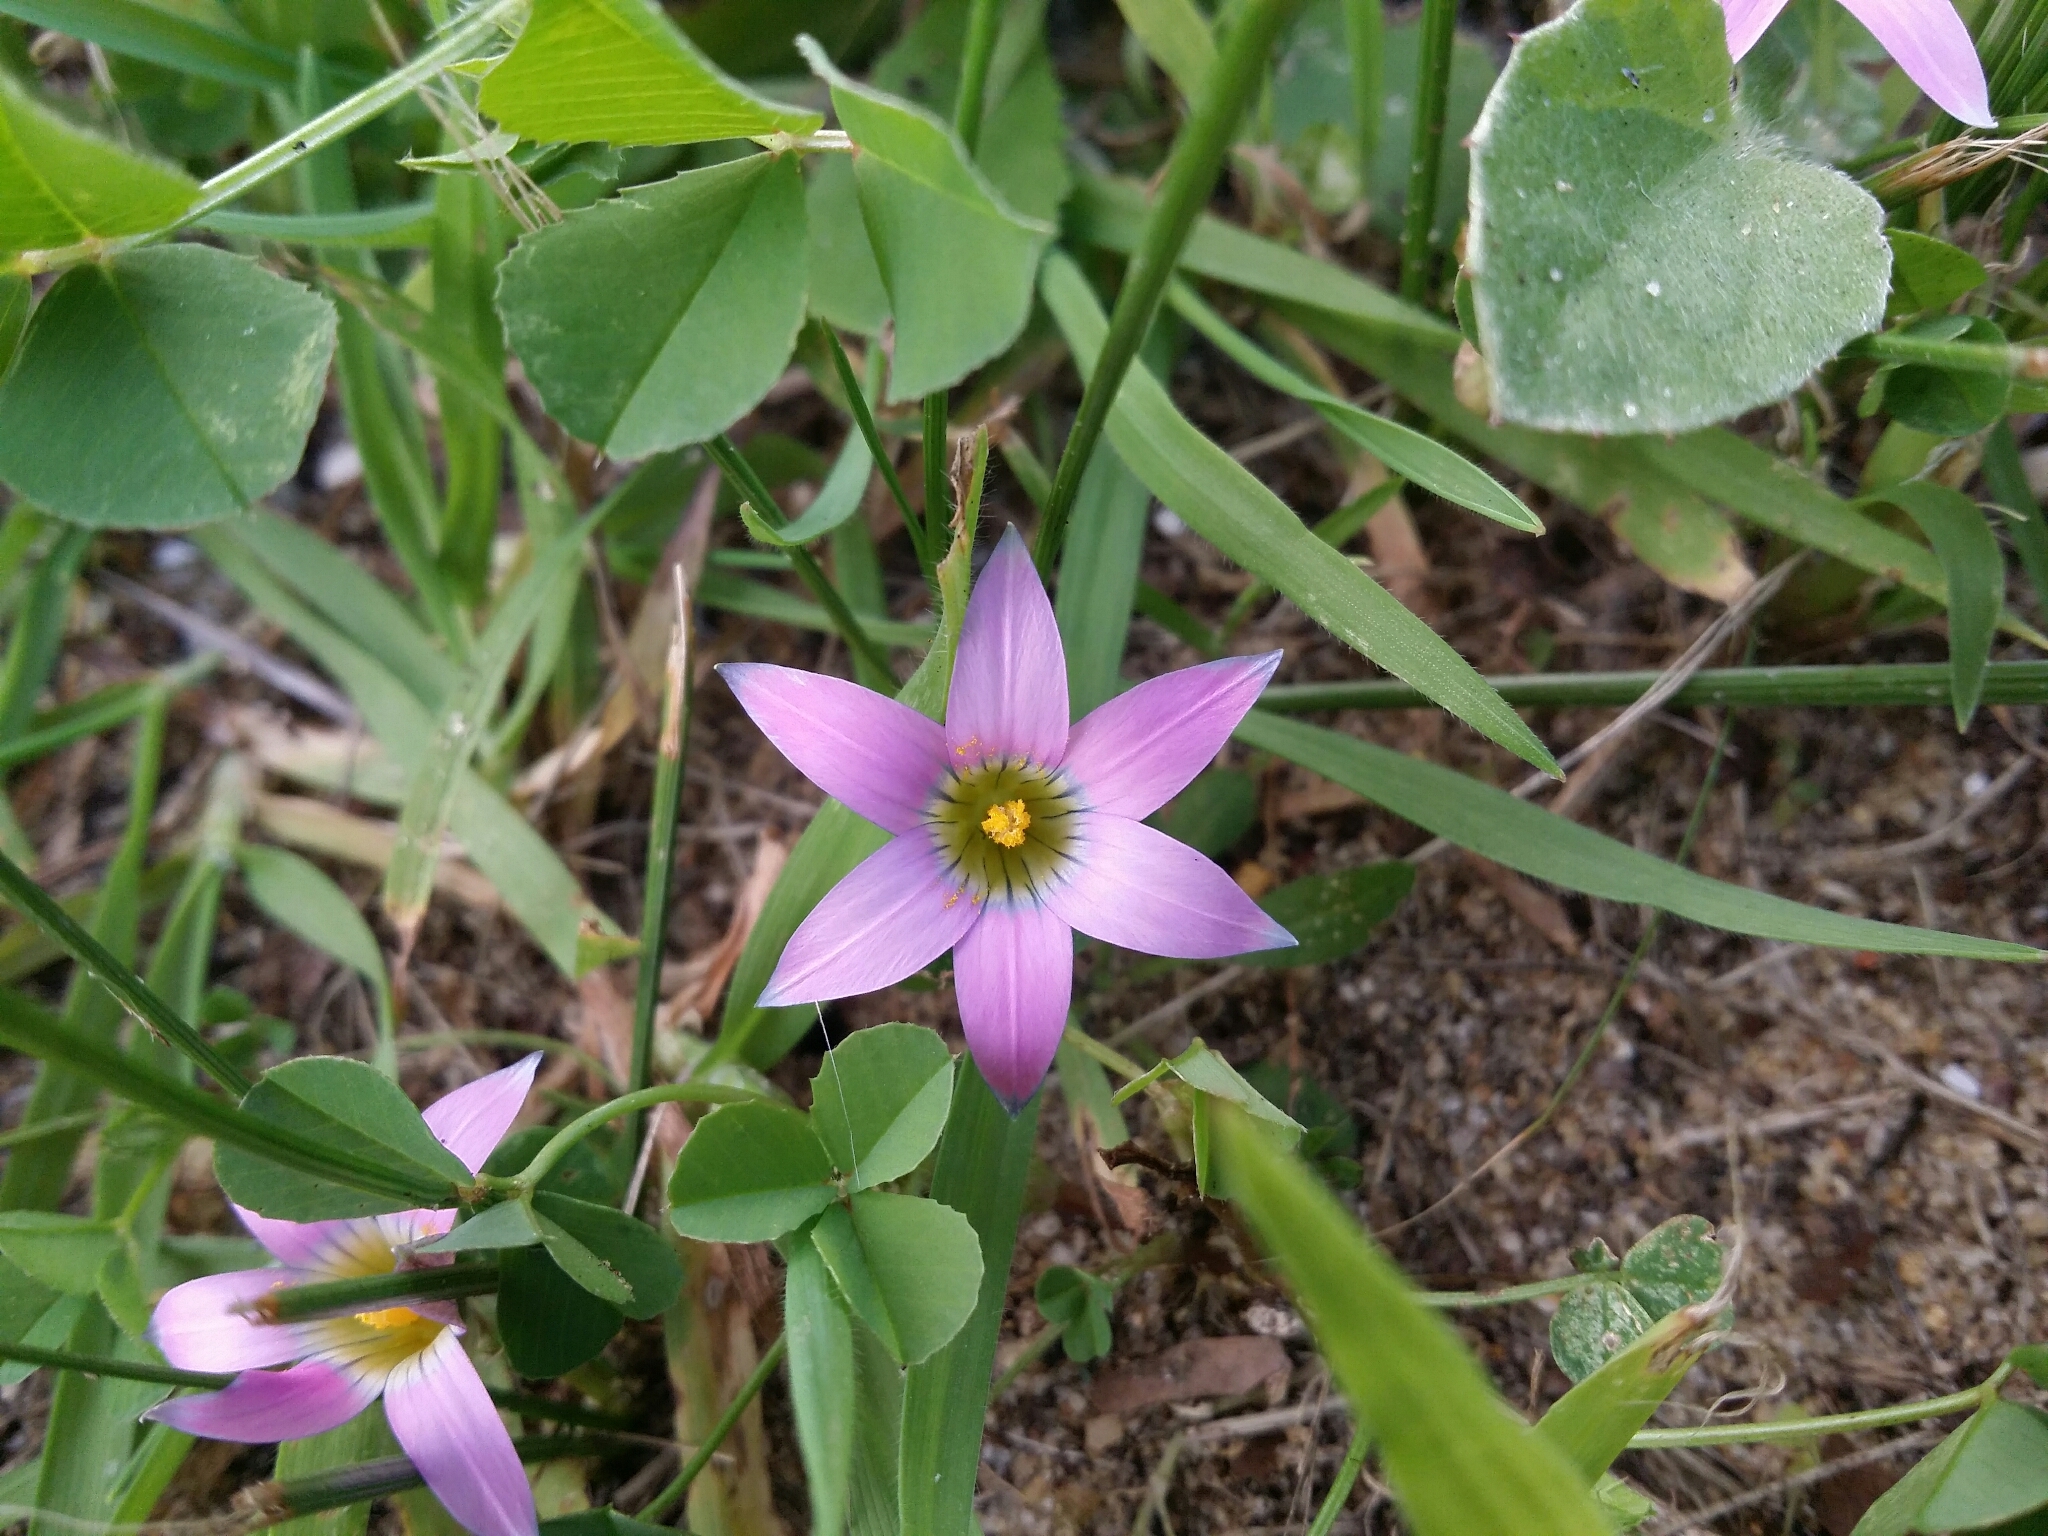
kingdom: Plantae
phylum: Tracheophyta
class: Liliopsida
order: Asparagales
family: Iridaceae
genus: Romulea
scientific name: Romulea rosea
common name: Oniongrass
